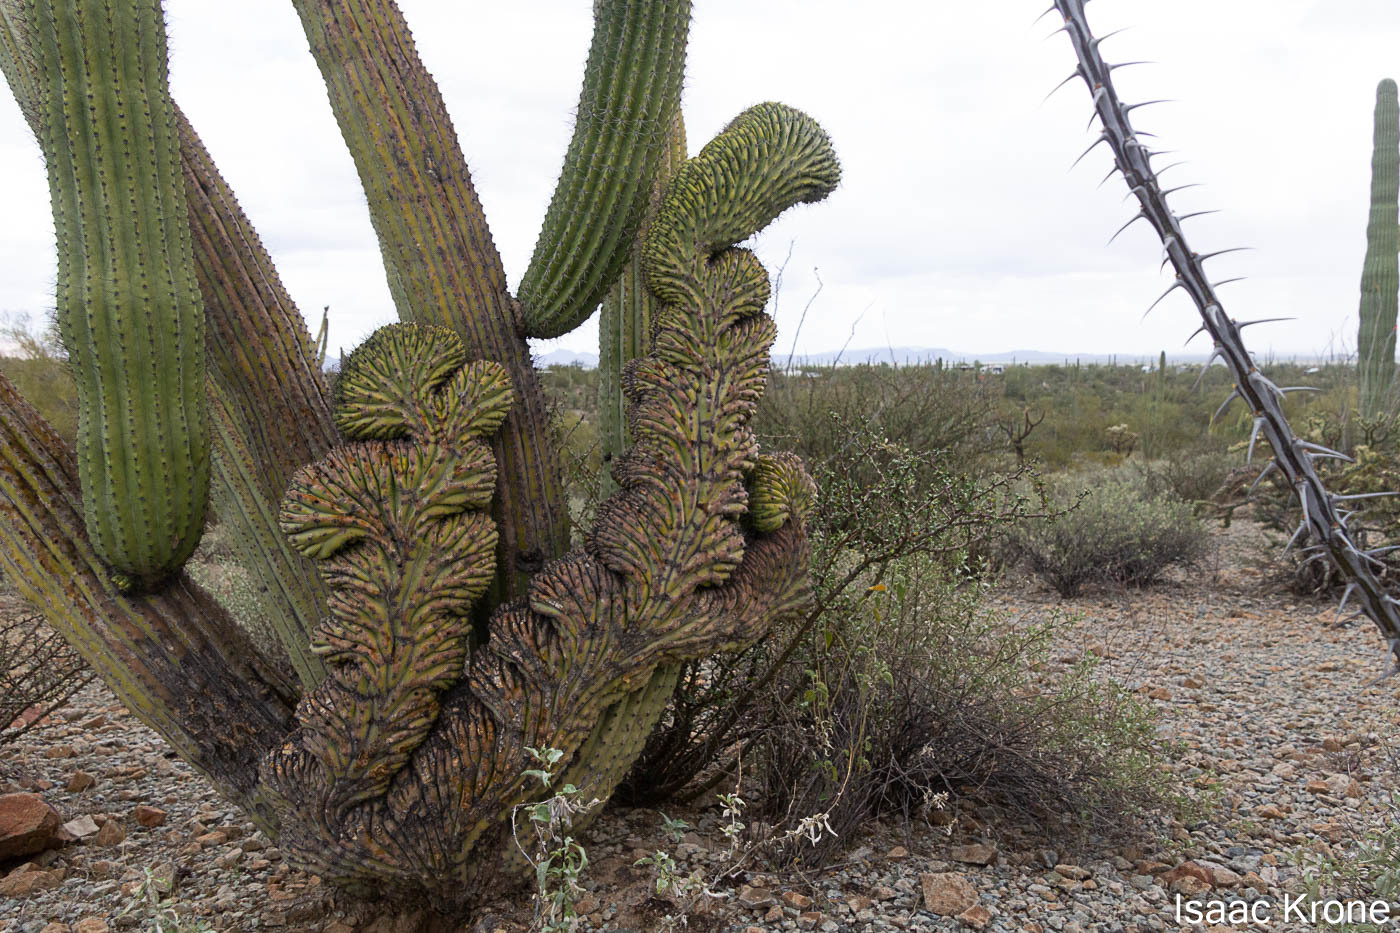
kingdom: Plantae
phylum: Tracheophyta
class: Magnoliopsida
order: Caryophyllales
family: Cactaceae
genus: Stenocereus
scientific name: Stenocereus thurberi
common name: Organ pipe cactus
